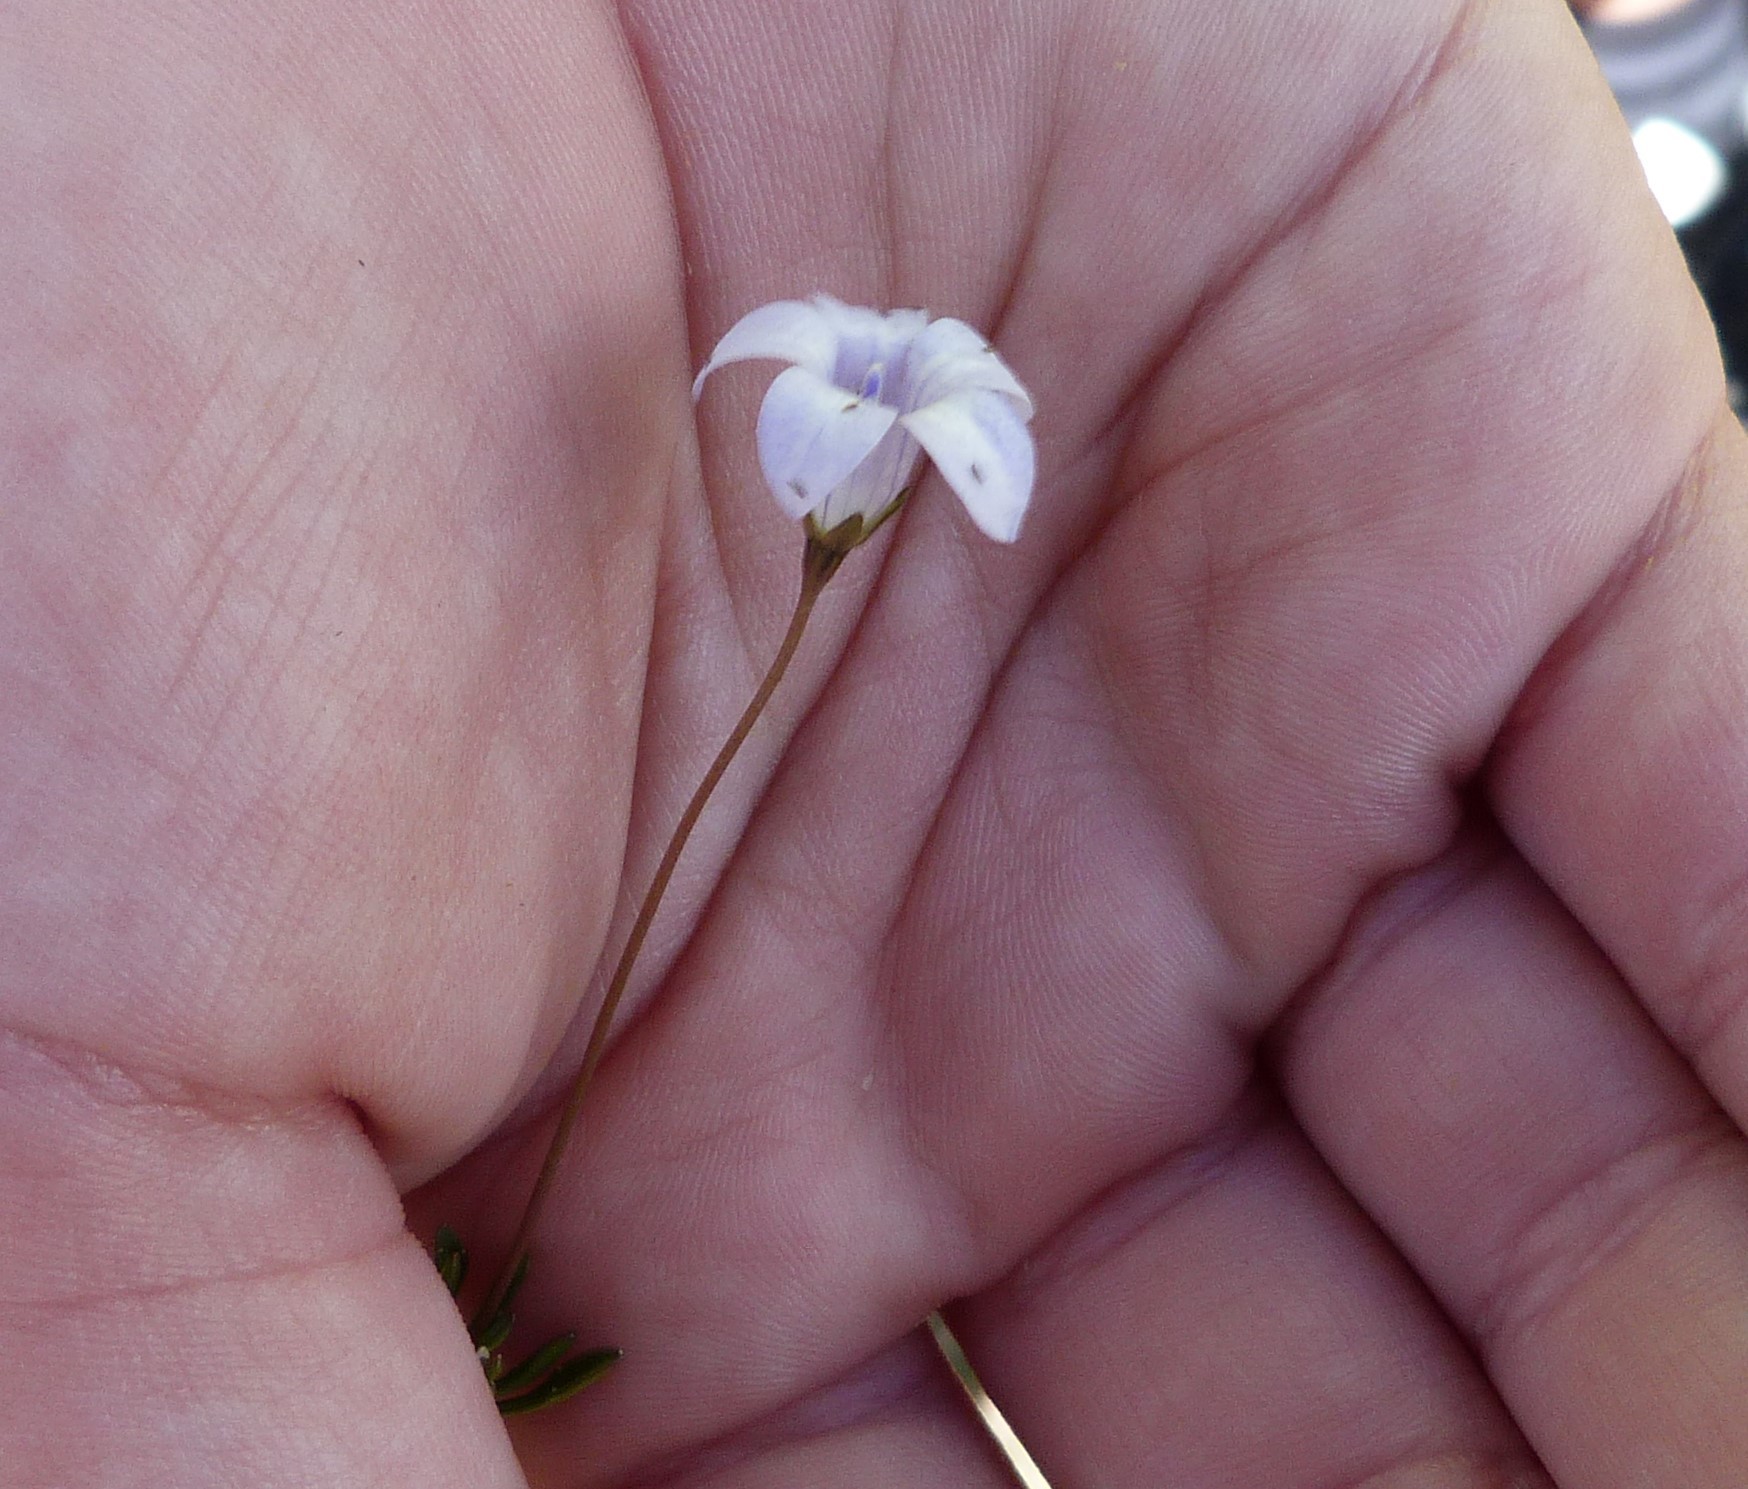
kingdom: Plantae
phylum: Tracheophyta
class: Magnoliopsida
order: Asterales
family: Campanulaceae
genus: Wahlenbergia
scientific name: Wahlenbergia albomarginata
